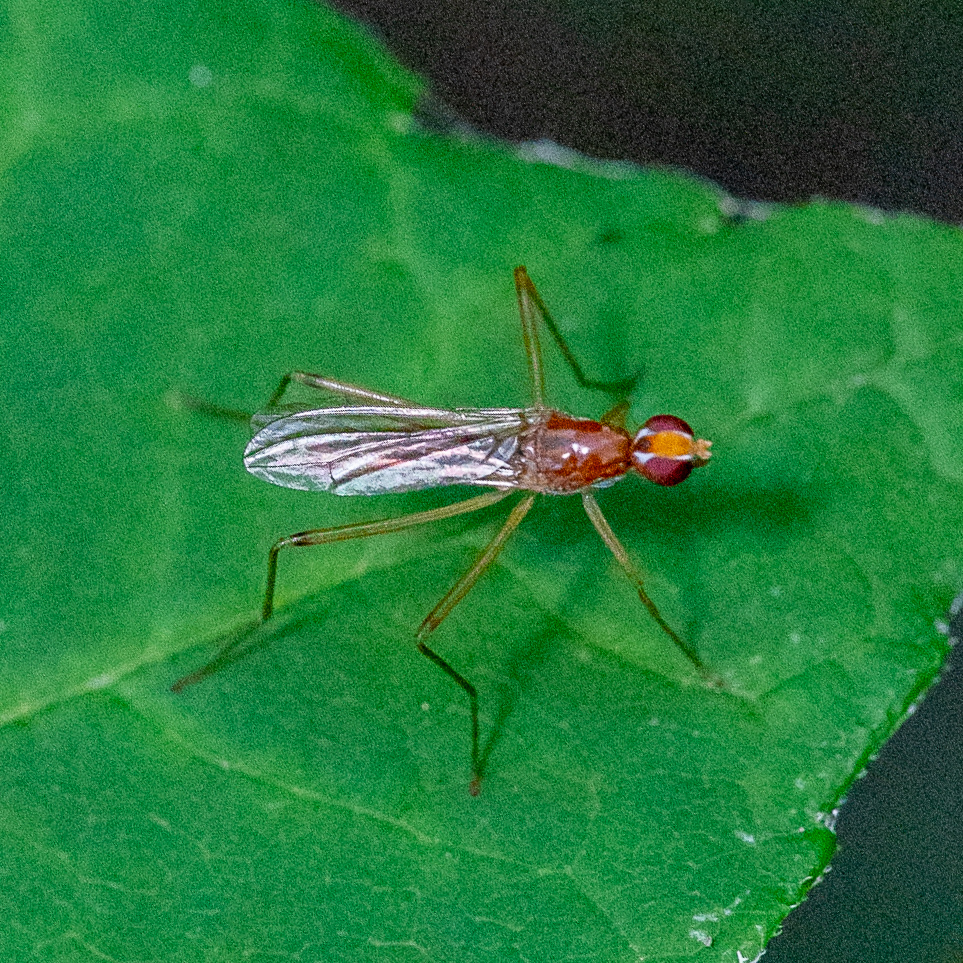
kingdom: Animalia
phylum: Arthropoda
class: Insecta
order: Diptera
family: Micropezidae
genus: Compsobata
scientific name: Compsobata univitta
